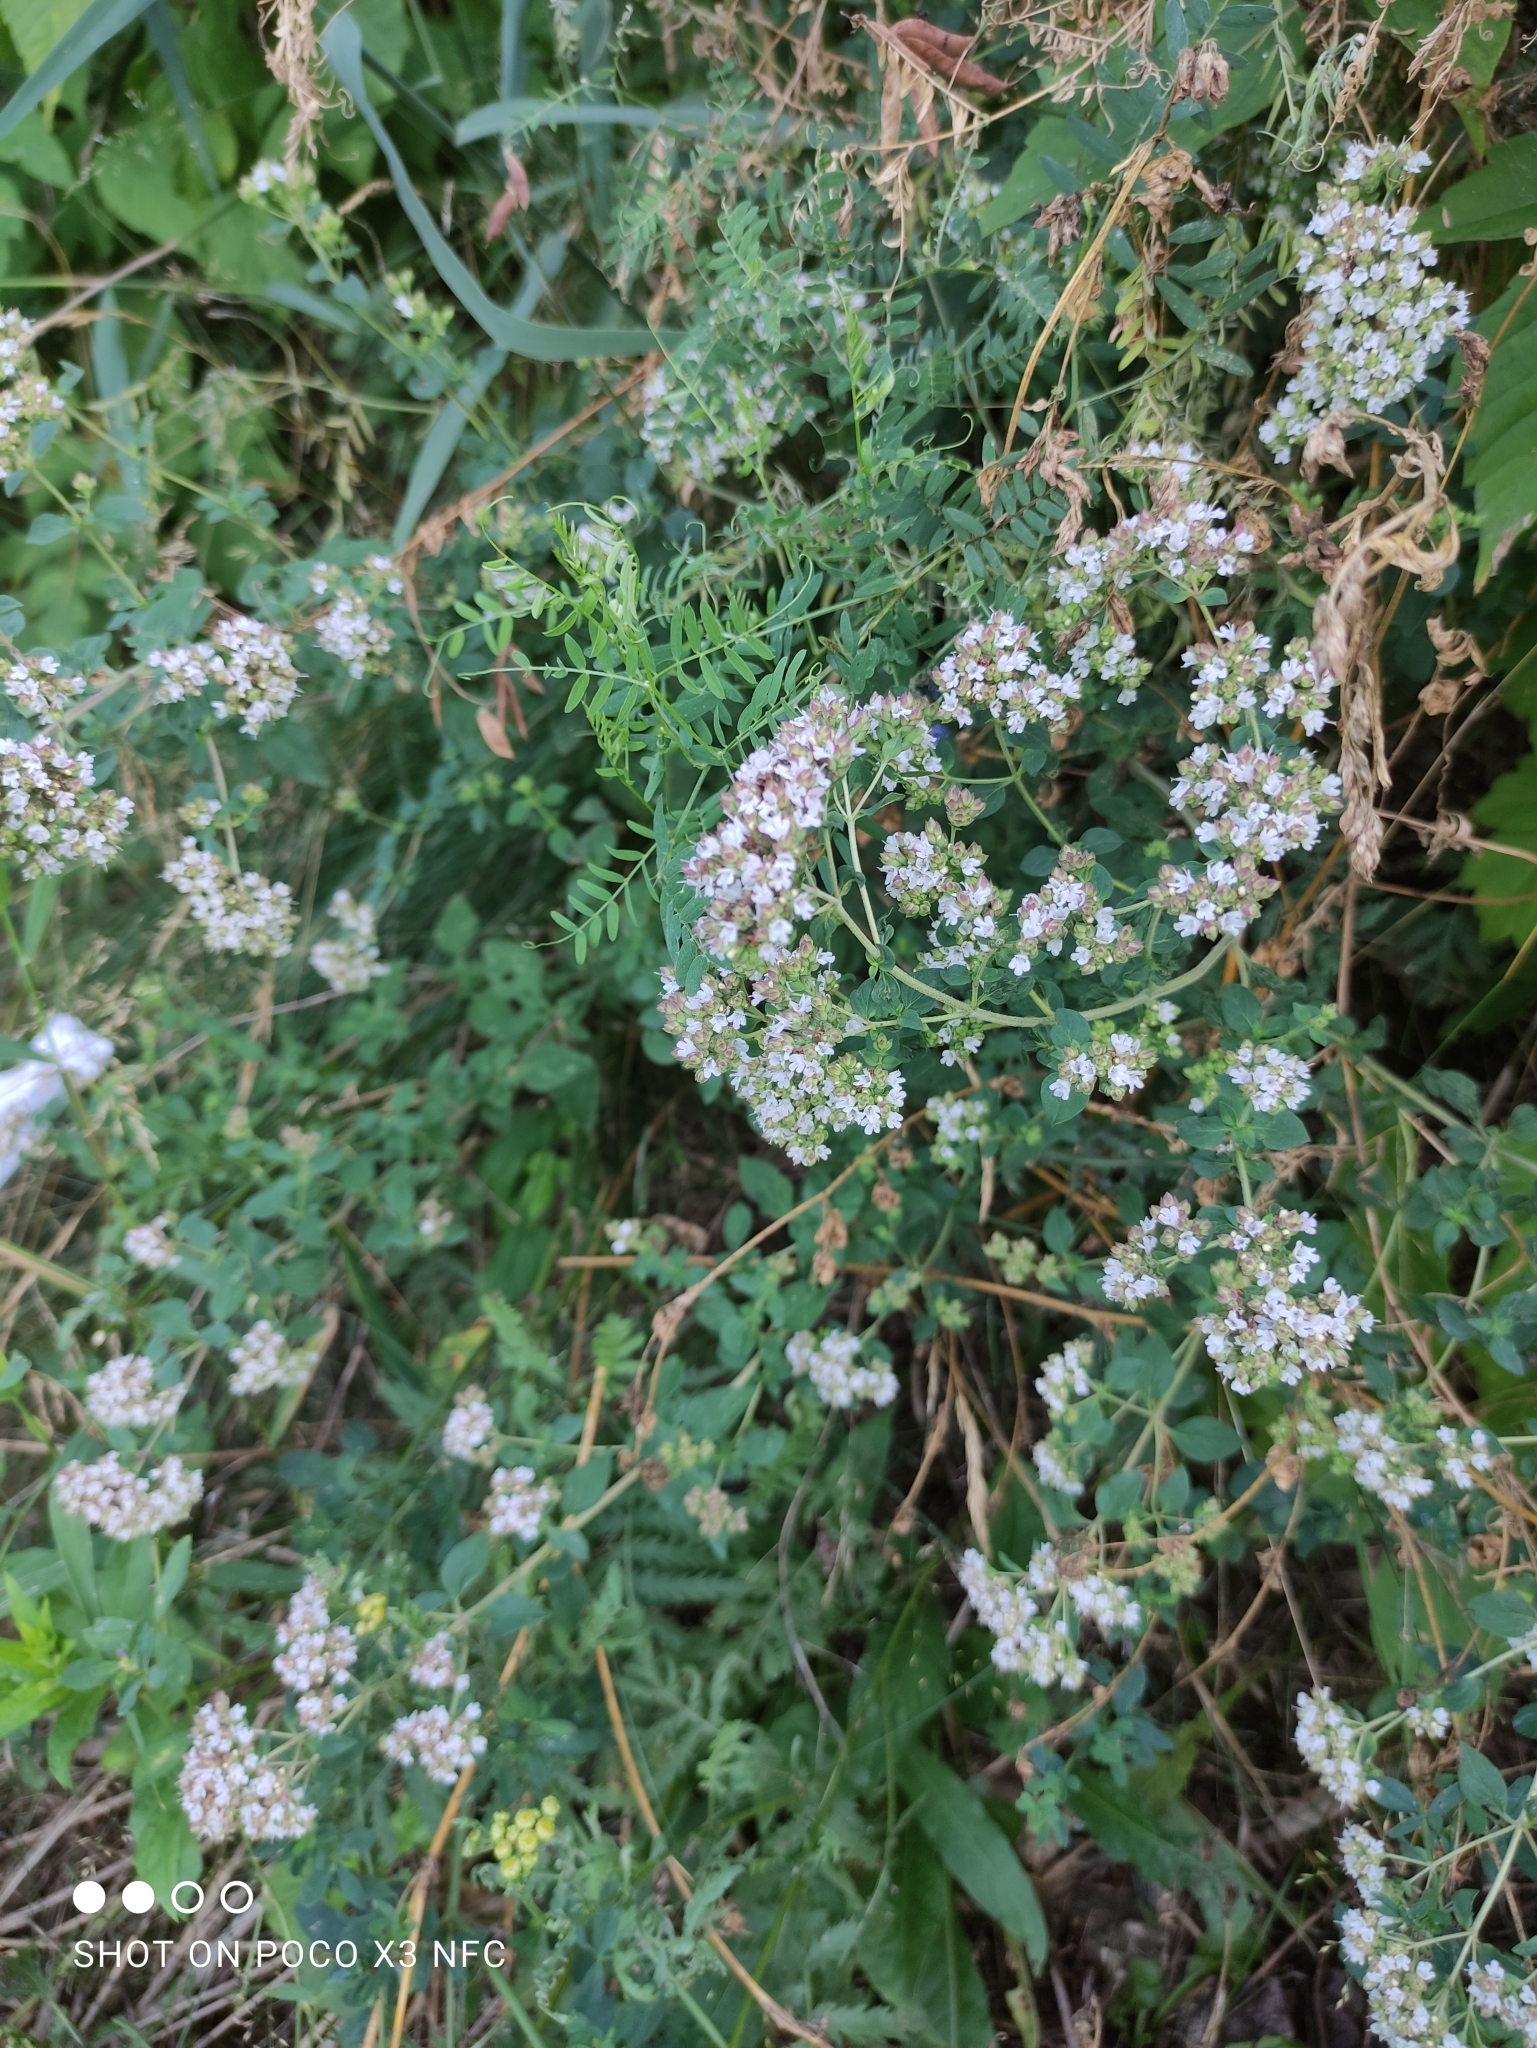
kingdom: Plantae
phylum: Tracheophyta
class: Magnoliopsida
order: Lamiales
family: Lamiaceae
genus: Origanum
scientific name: Origanum vulgare
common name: Wild marjoram
